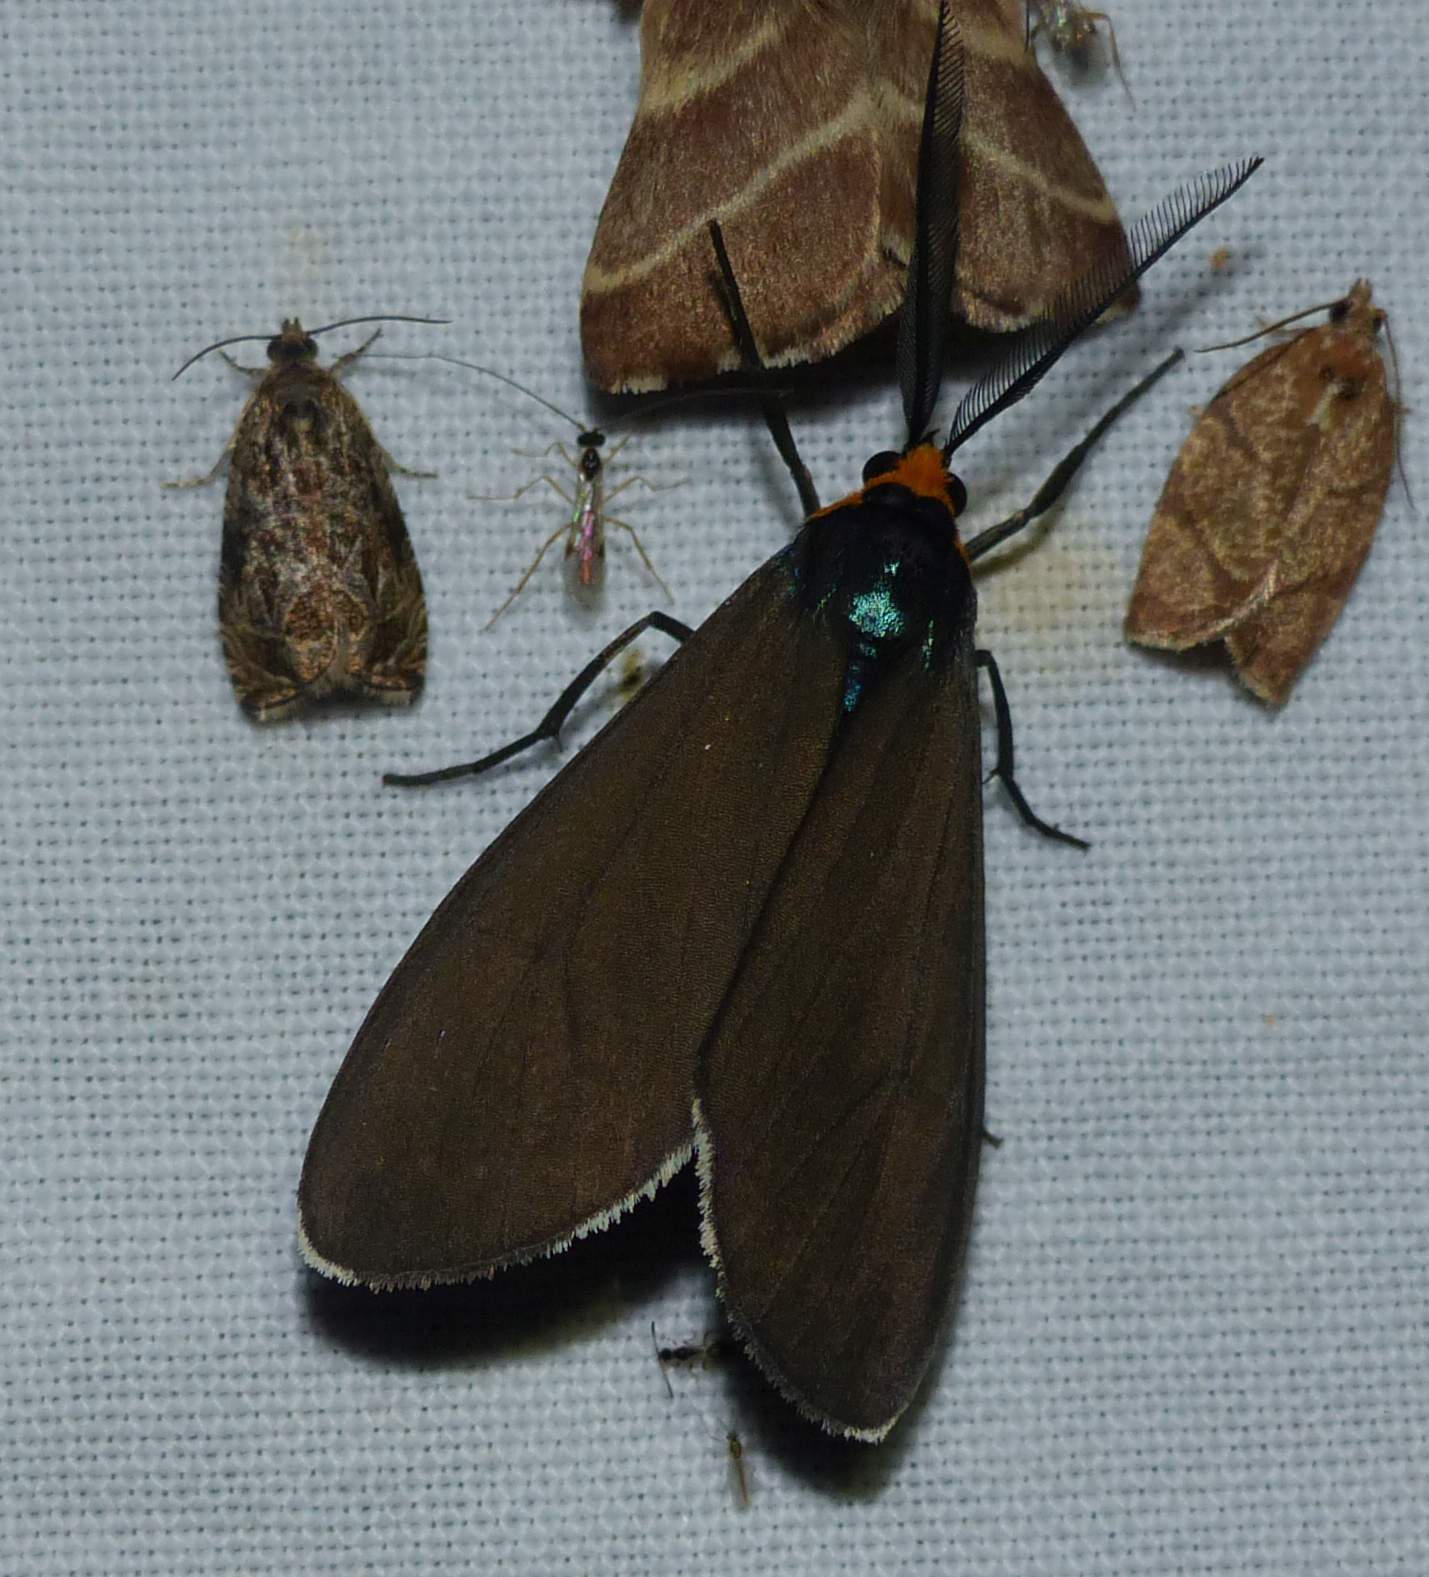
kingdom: Animalia
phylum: Arthropoda
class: Insecta
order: Lepidoptera
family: Erebidae
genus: Ctenucha
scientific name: Ctenucha virginica
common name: Virginia ctenucha moth
